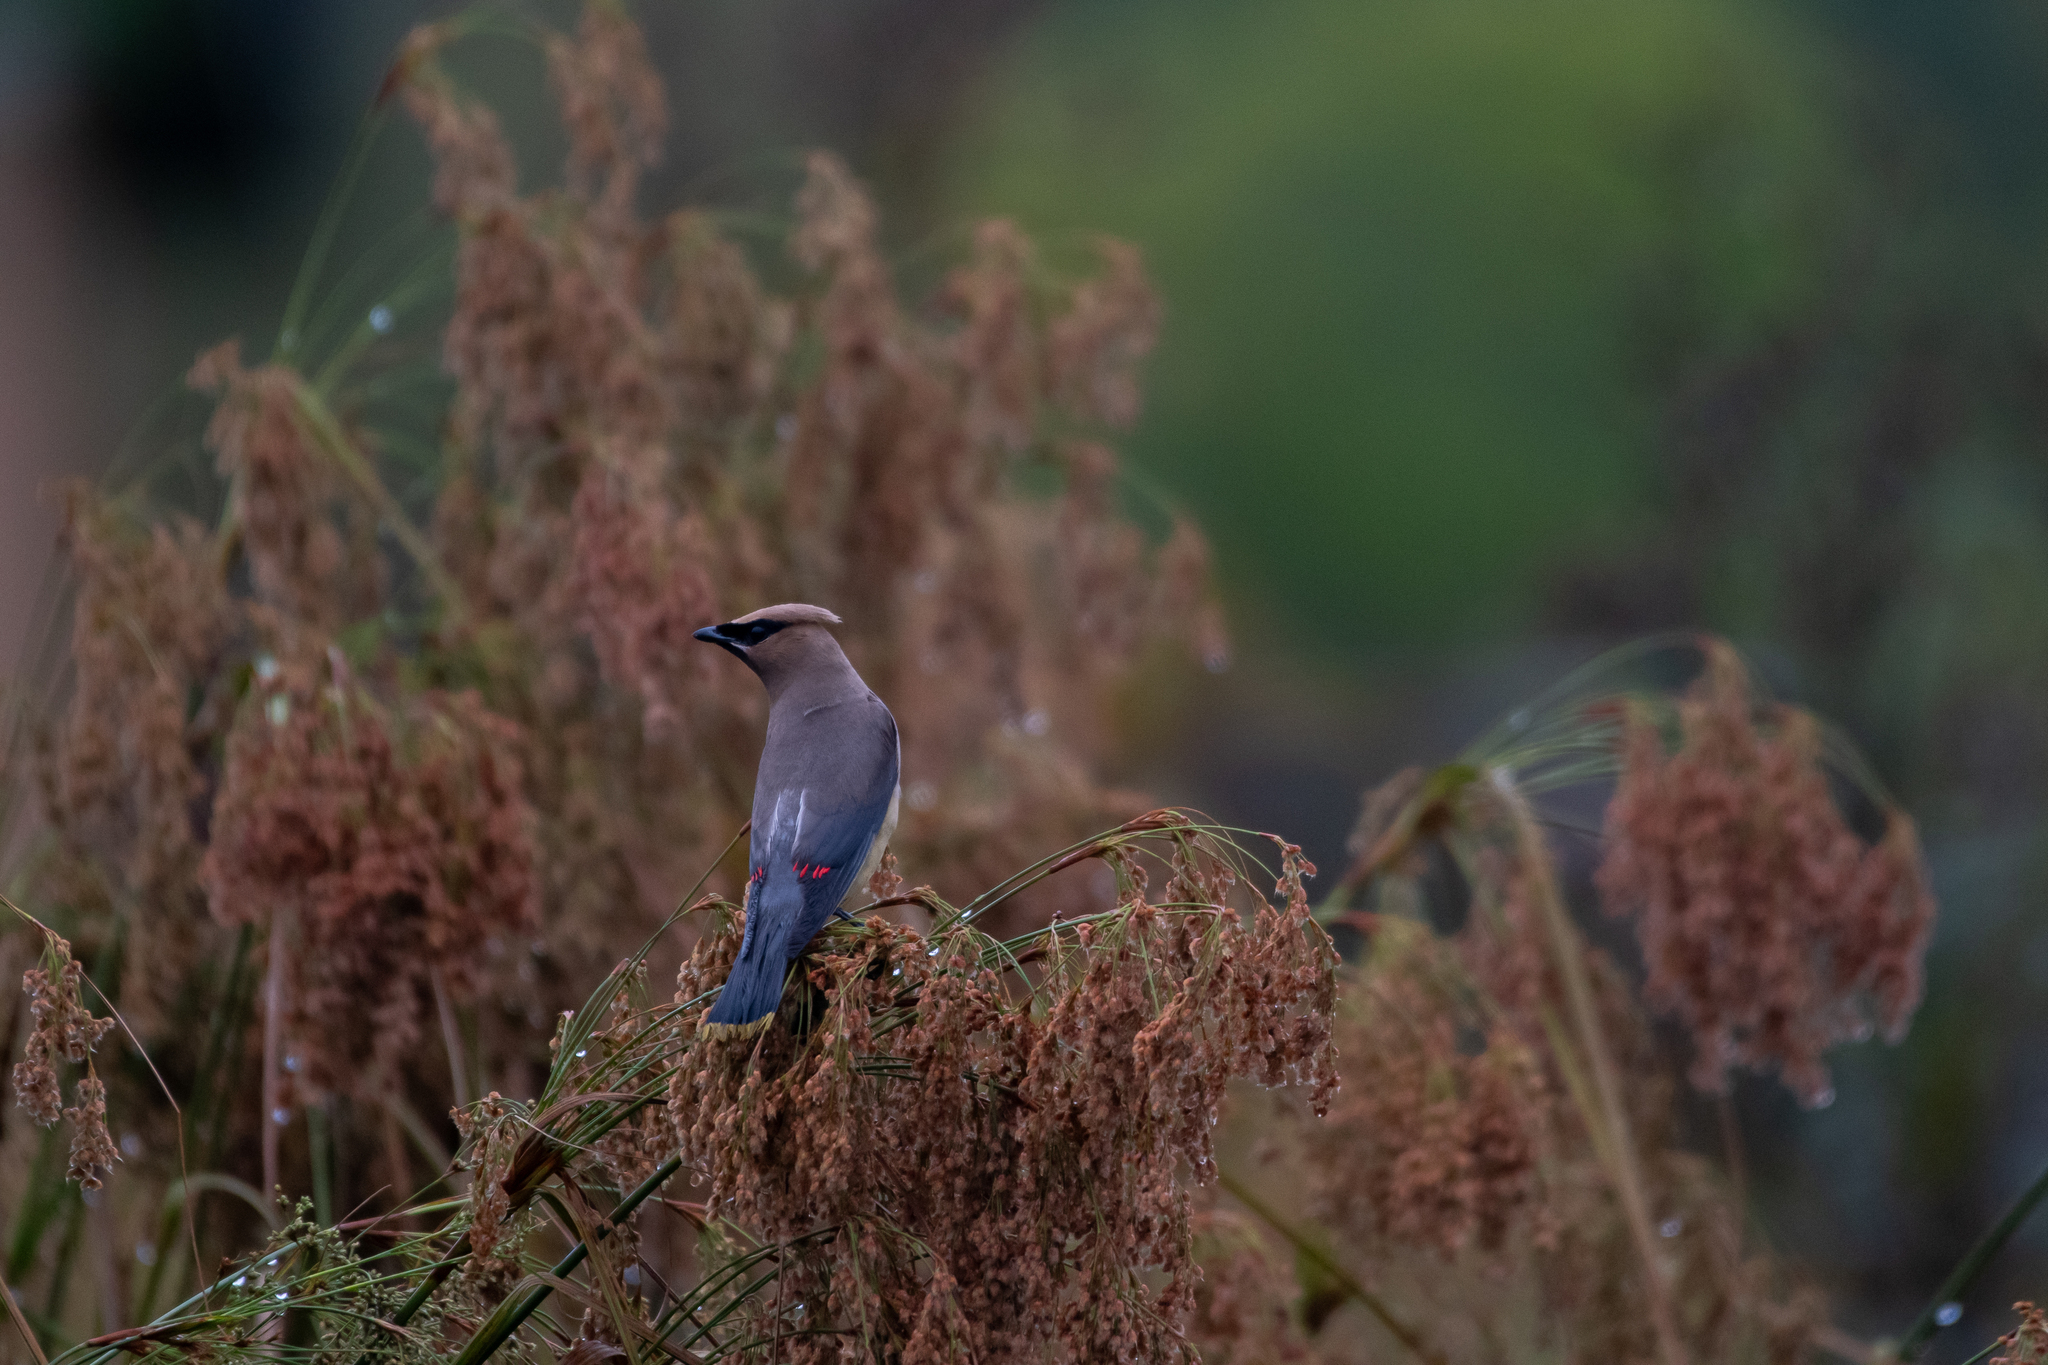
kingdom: Animalia
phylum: Chordata
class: Aves
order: Passeriformes
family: Bombycillidae
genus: Bombycilla
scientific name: Bombycilla cedrorum
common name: Cedar waxwing
